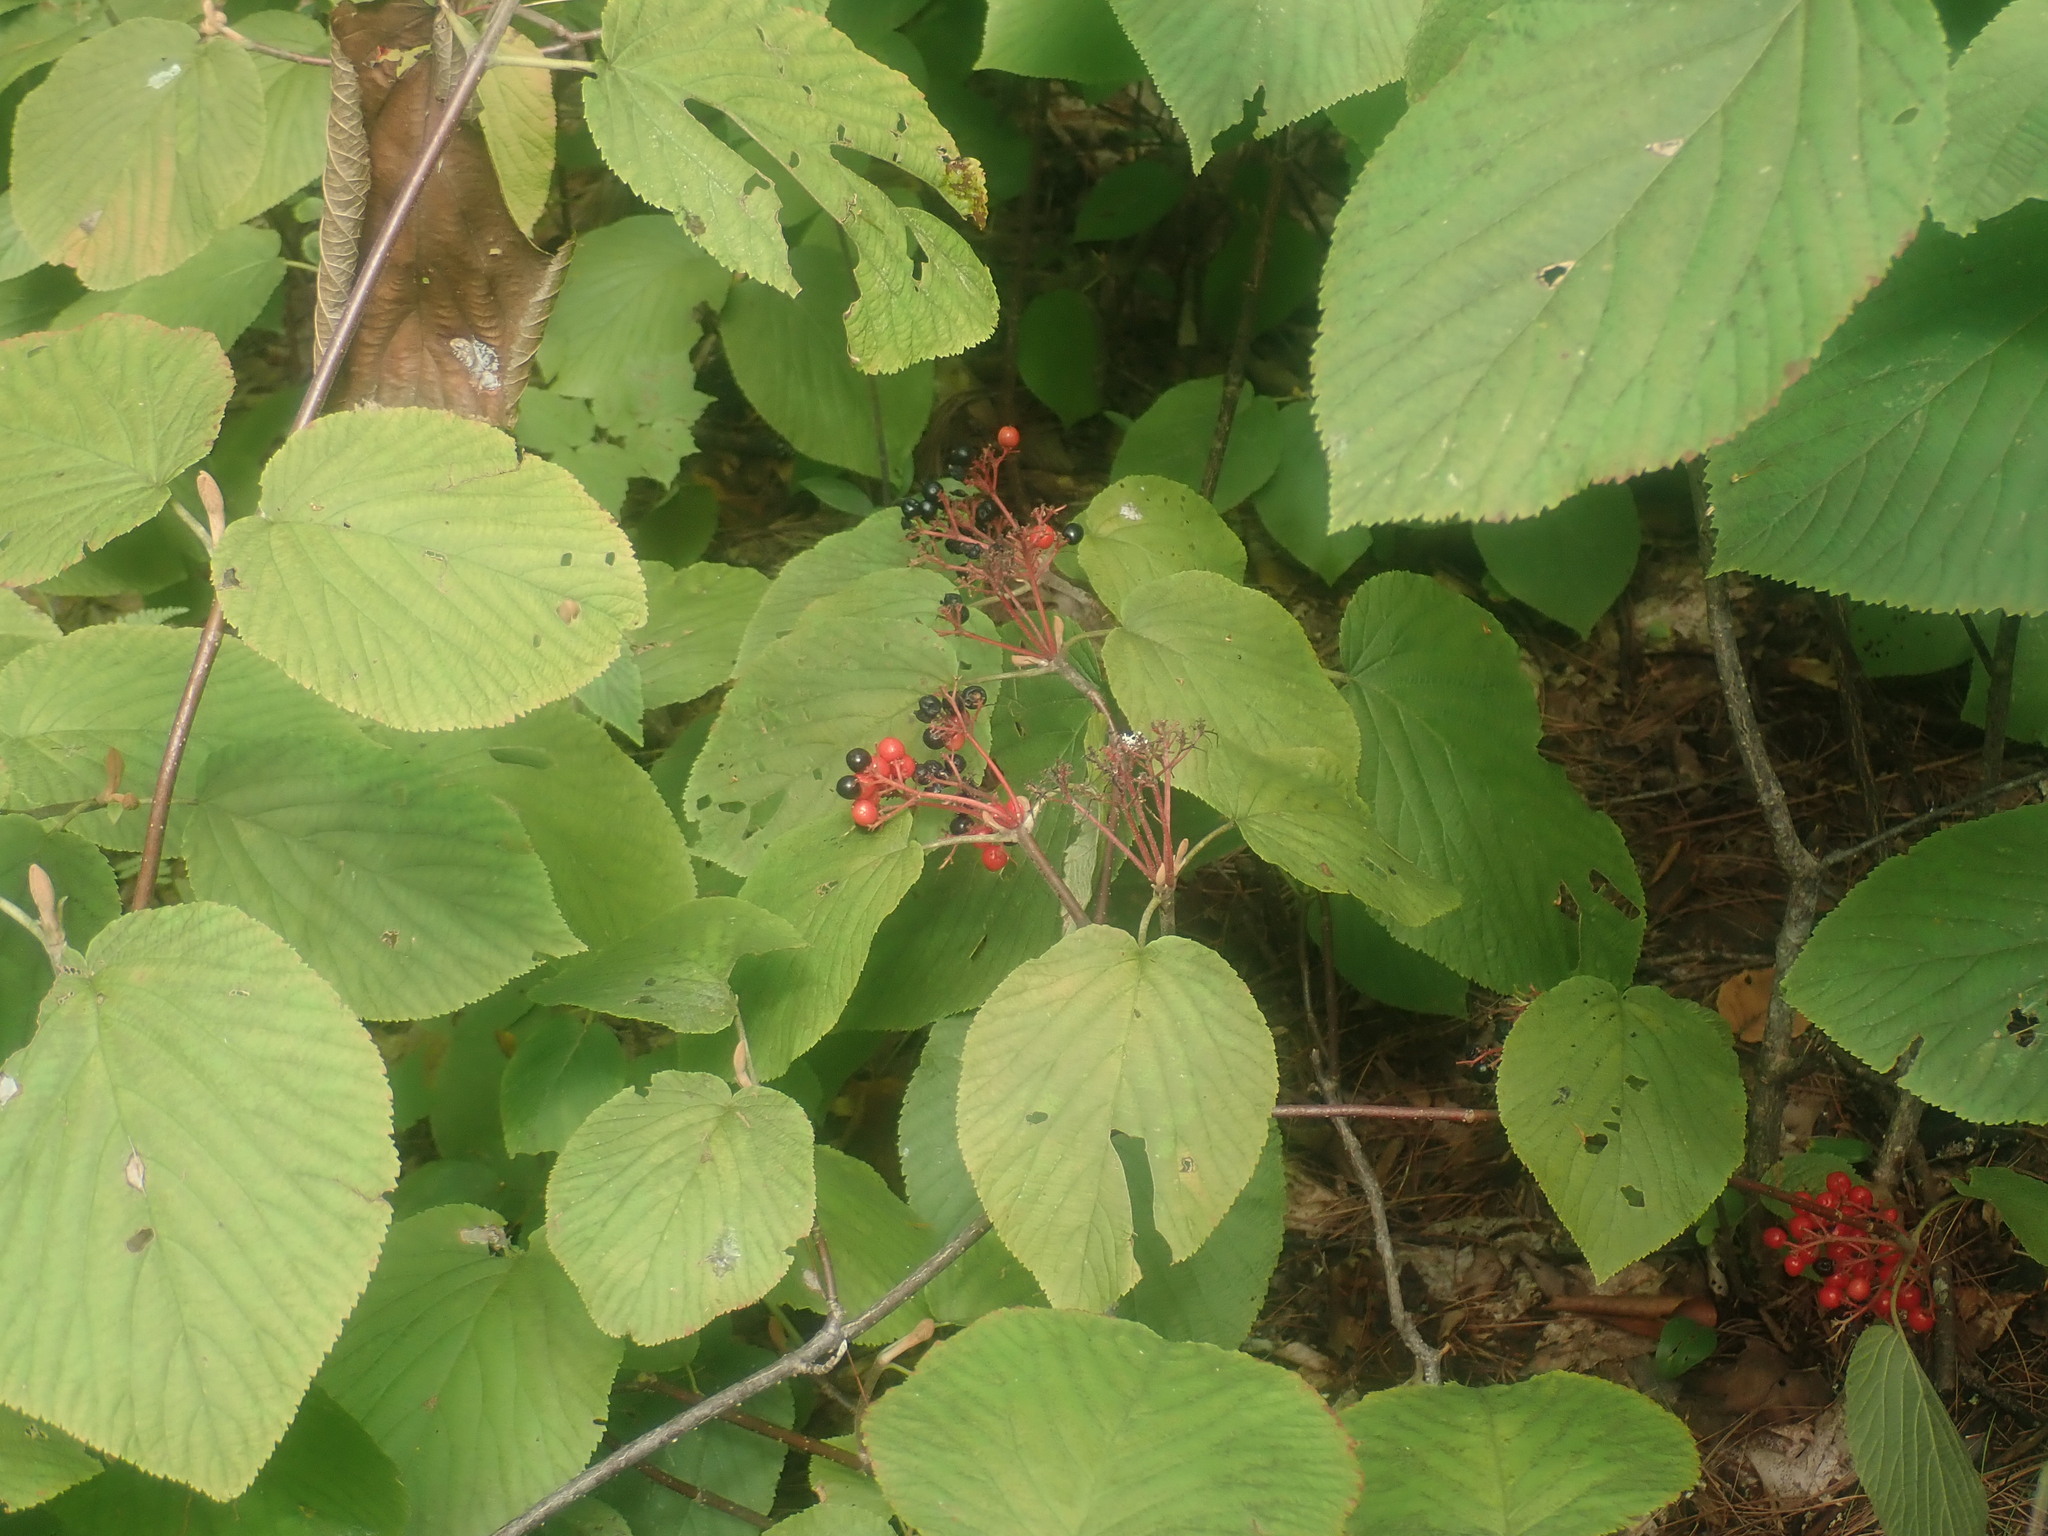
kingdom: Plantae
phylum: Tracheophyta
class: Magnoliopsida
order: Dipsacales
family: Viburnaceae
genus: Viburnum
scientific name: Viburnum lantanoides
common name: Hobblebush
